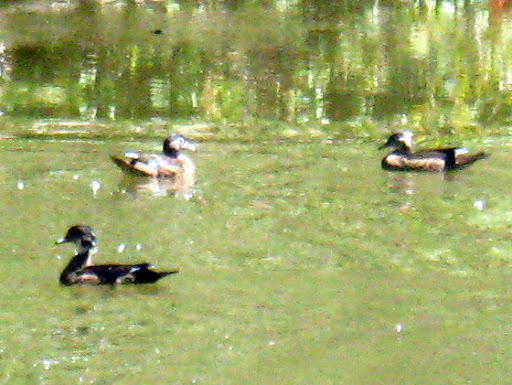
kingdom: Animalia
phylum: Chordata
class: Aves
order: Anseriformes
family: Anatidae
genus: Aix
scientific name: Aix sponsa
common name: Wood duck
